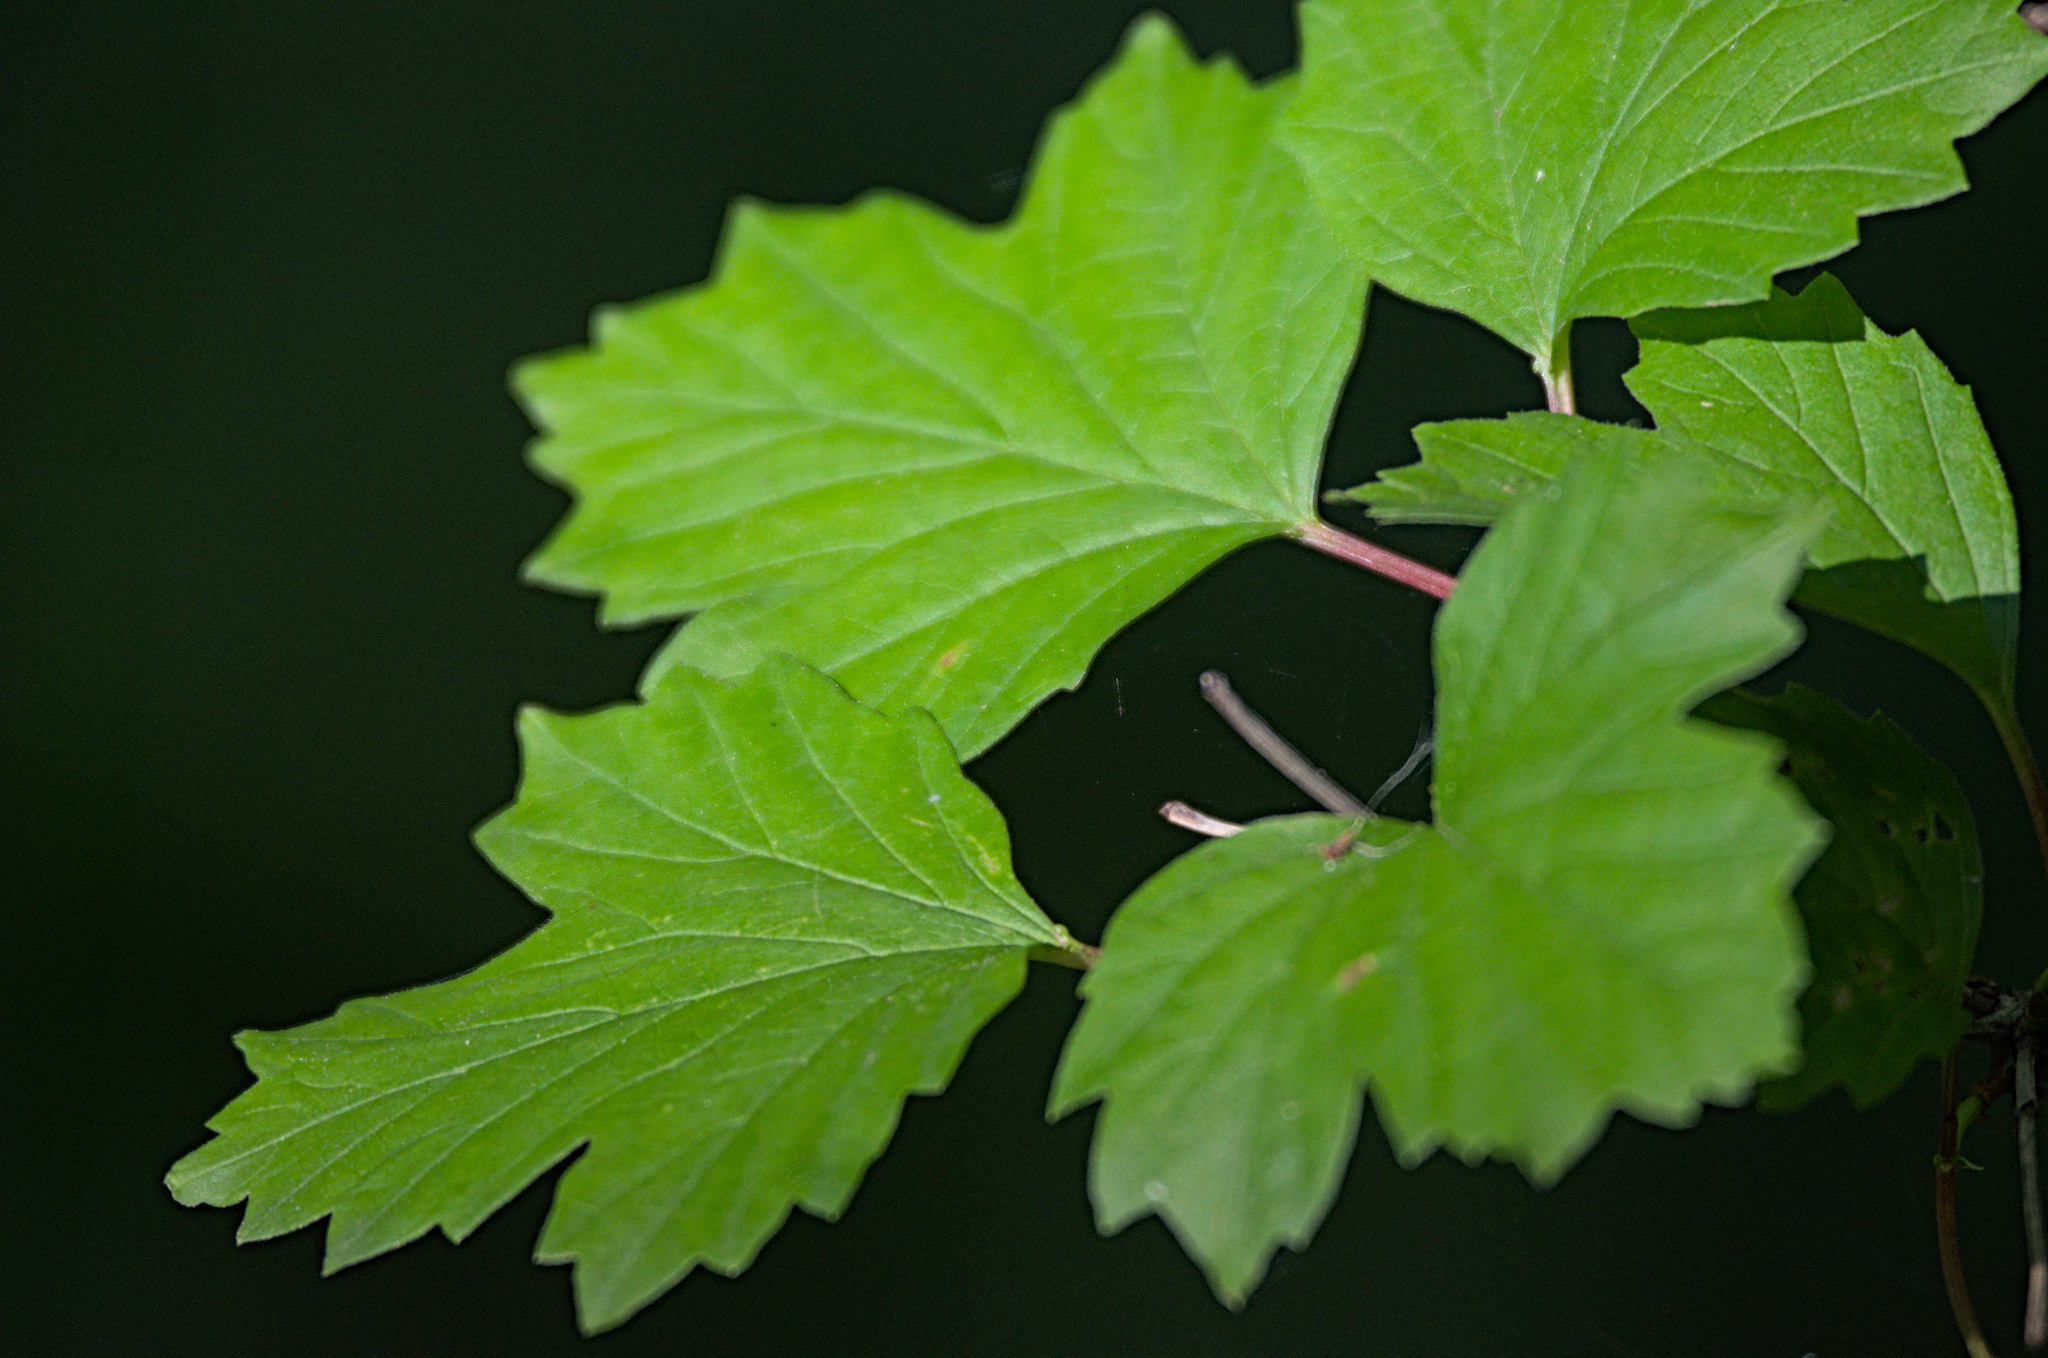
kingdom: Plantae
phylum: Tracheophyta
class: Magnoliopsida
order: Dipsacales
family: Viburnaceae
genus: Viburnum
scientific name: Viburnum opulus
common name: Guelder-rose
